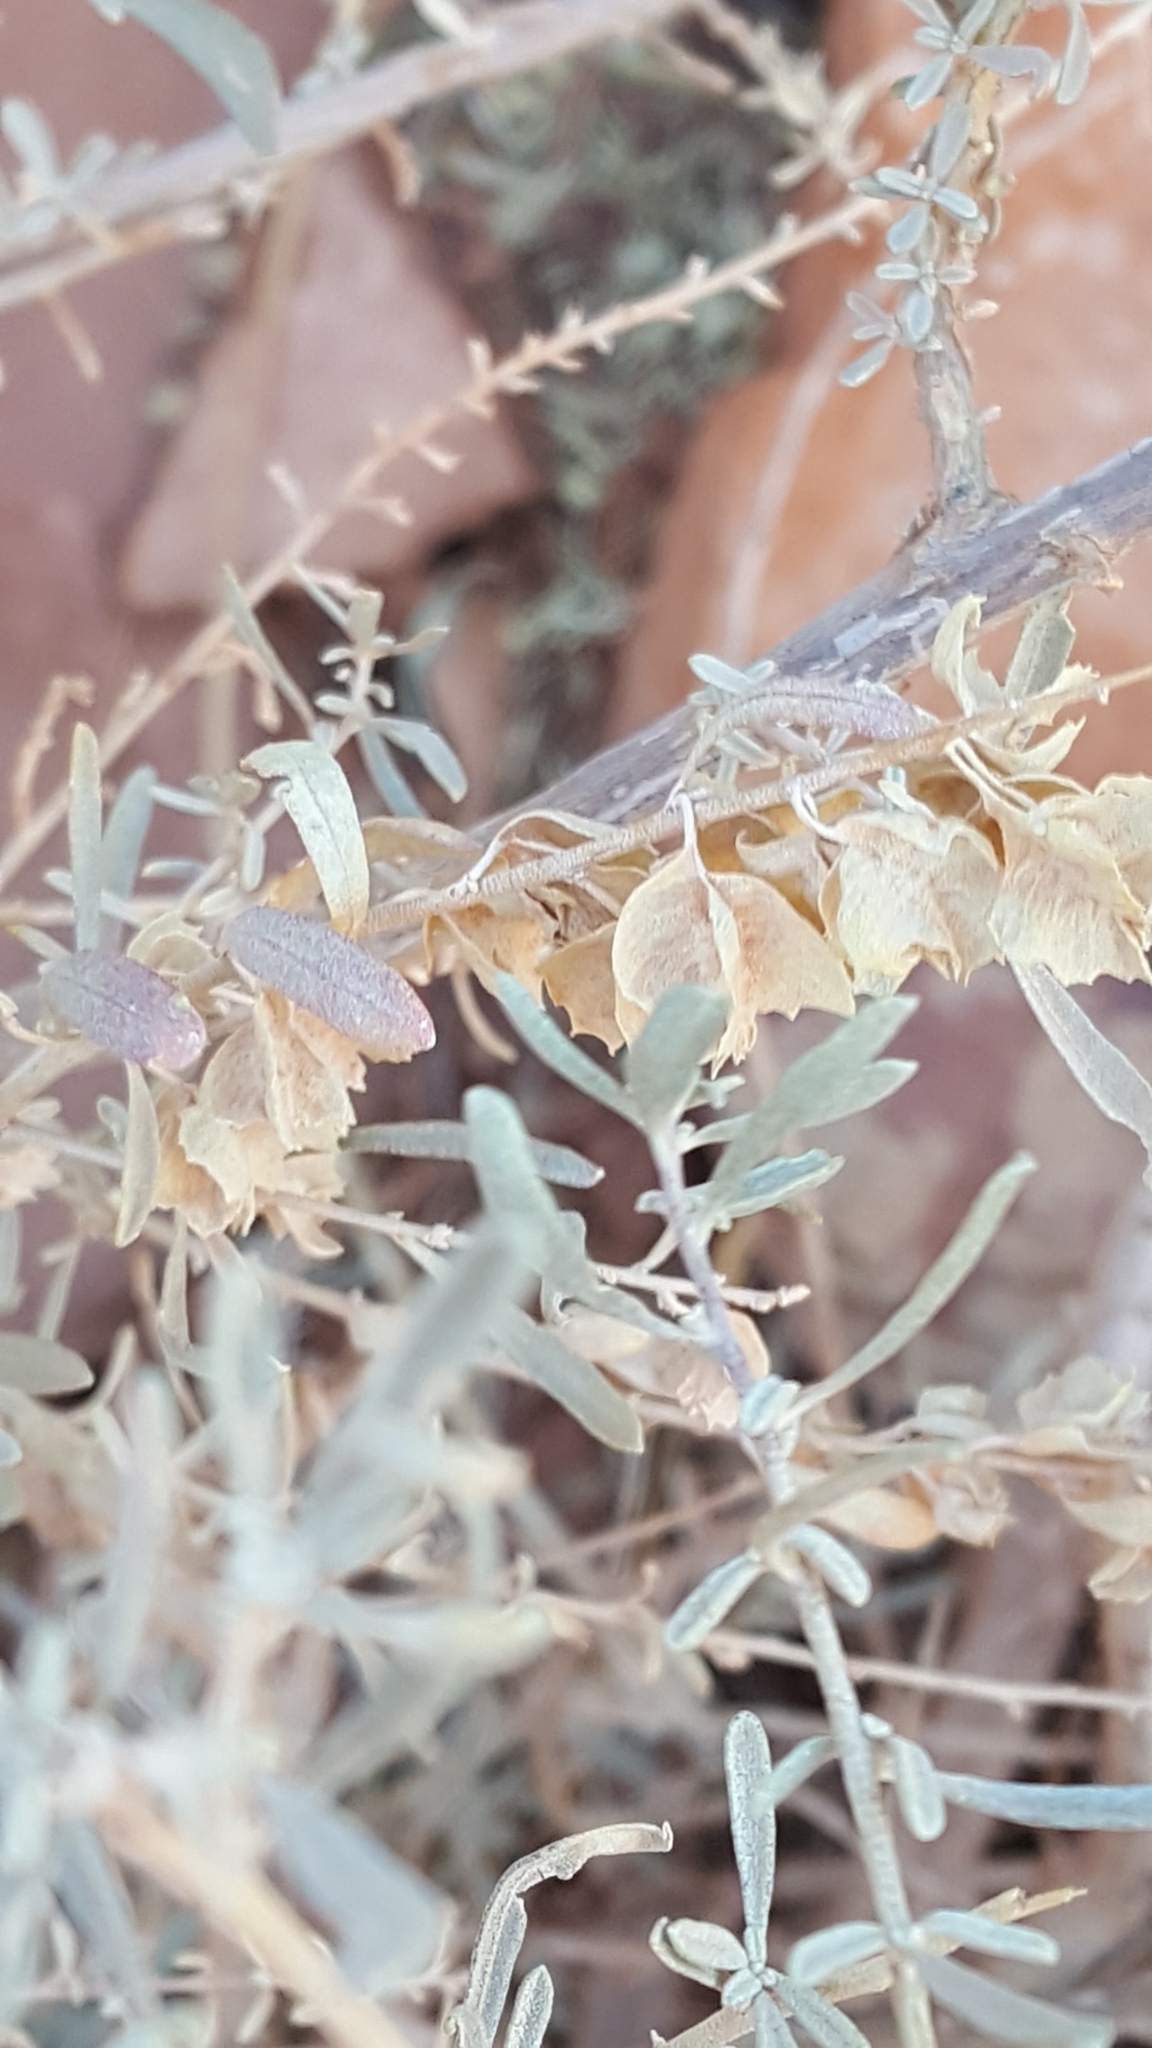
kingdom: Plantae
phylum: Tracheophyta
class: Magnoliopsida
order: Caryophyllales
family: Amaranthaceae
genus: Atriplex
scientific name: Atriplex canescens
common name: Four-wing saltbush
